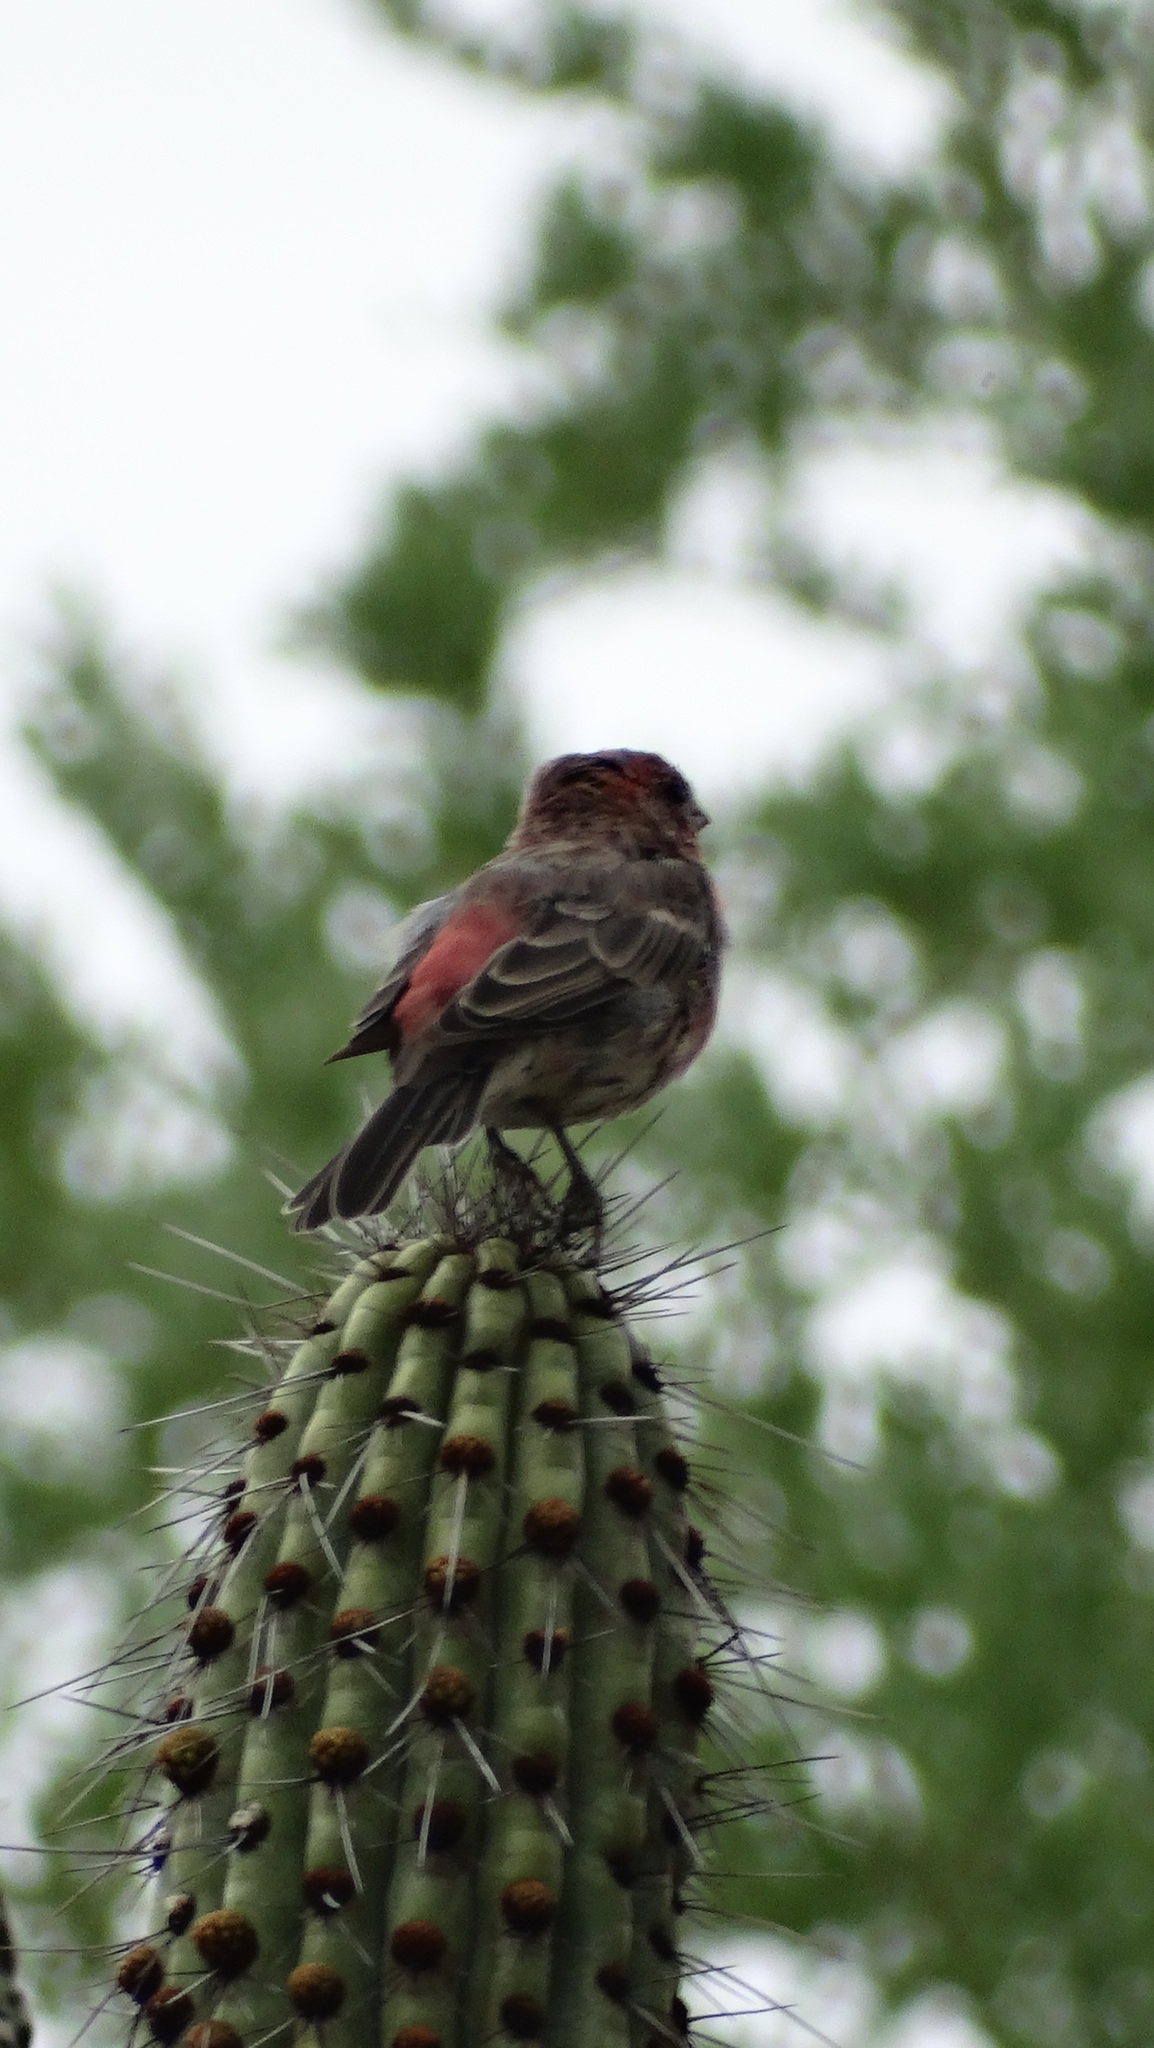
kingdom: Animalia
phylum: Chordata
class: Aves
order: Passeriformes
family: Fringillidae
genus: Haemorhous
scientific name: Haemorhous mexicanus
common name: House finch
